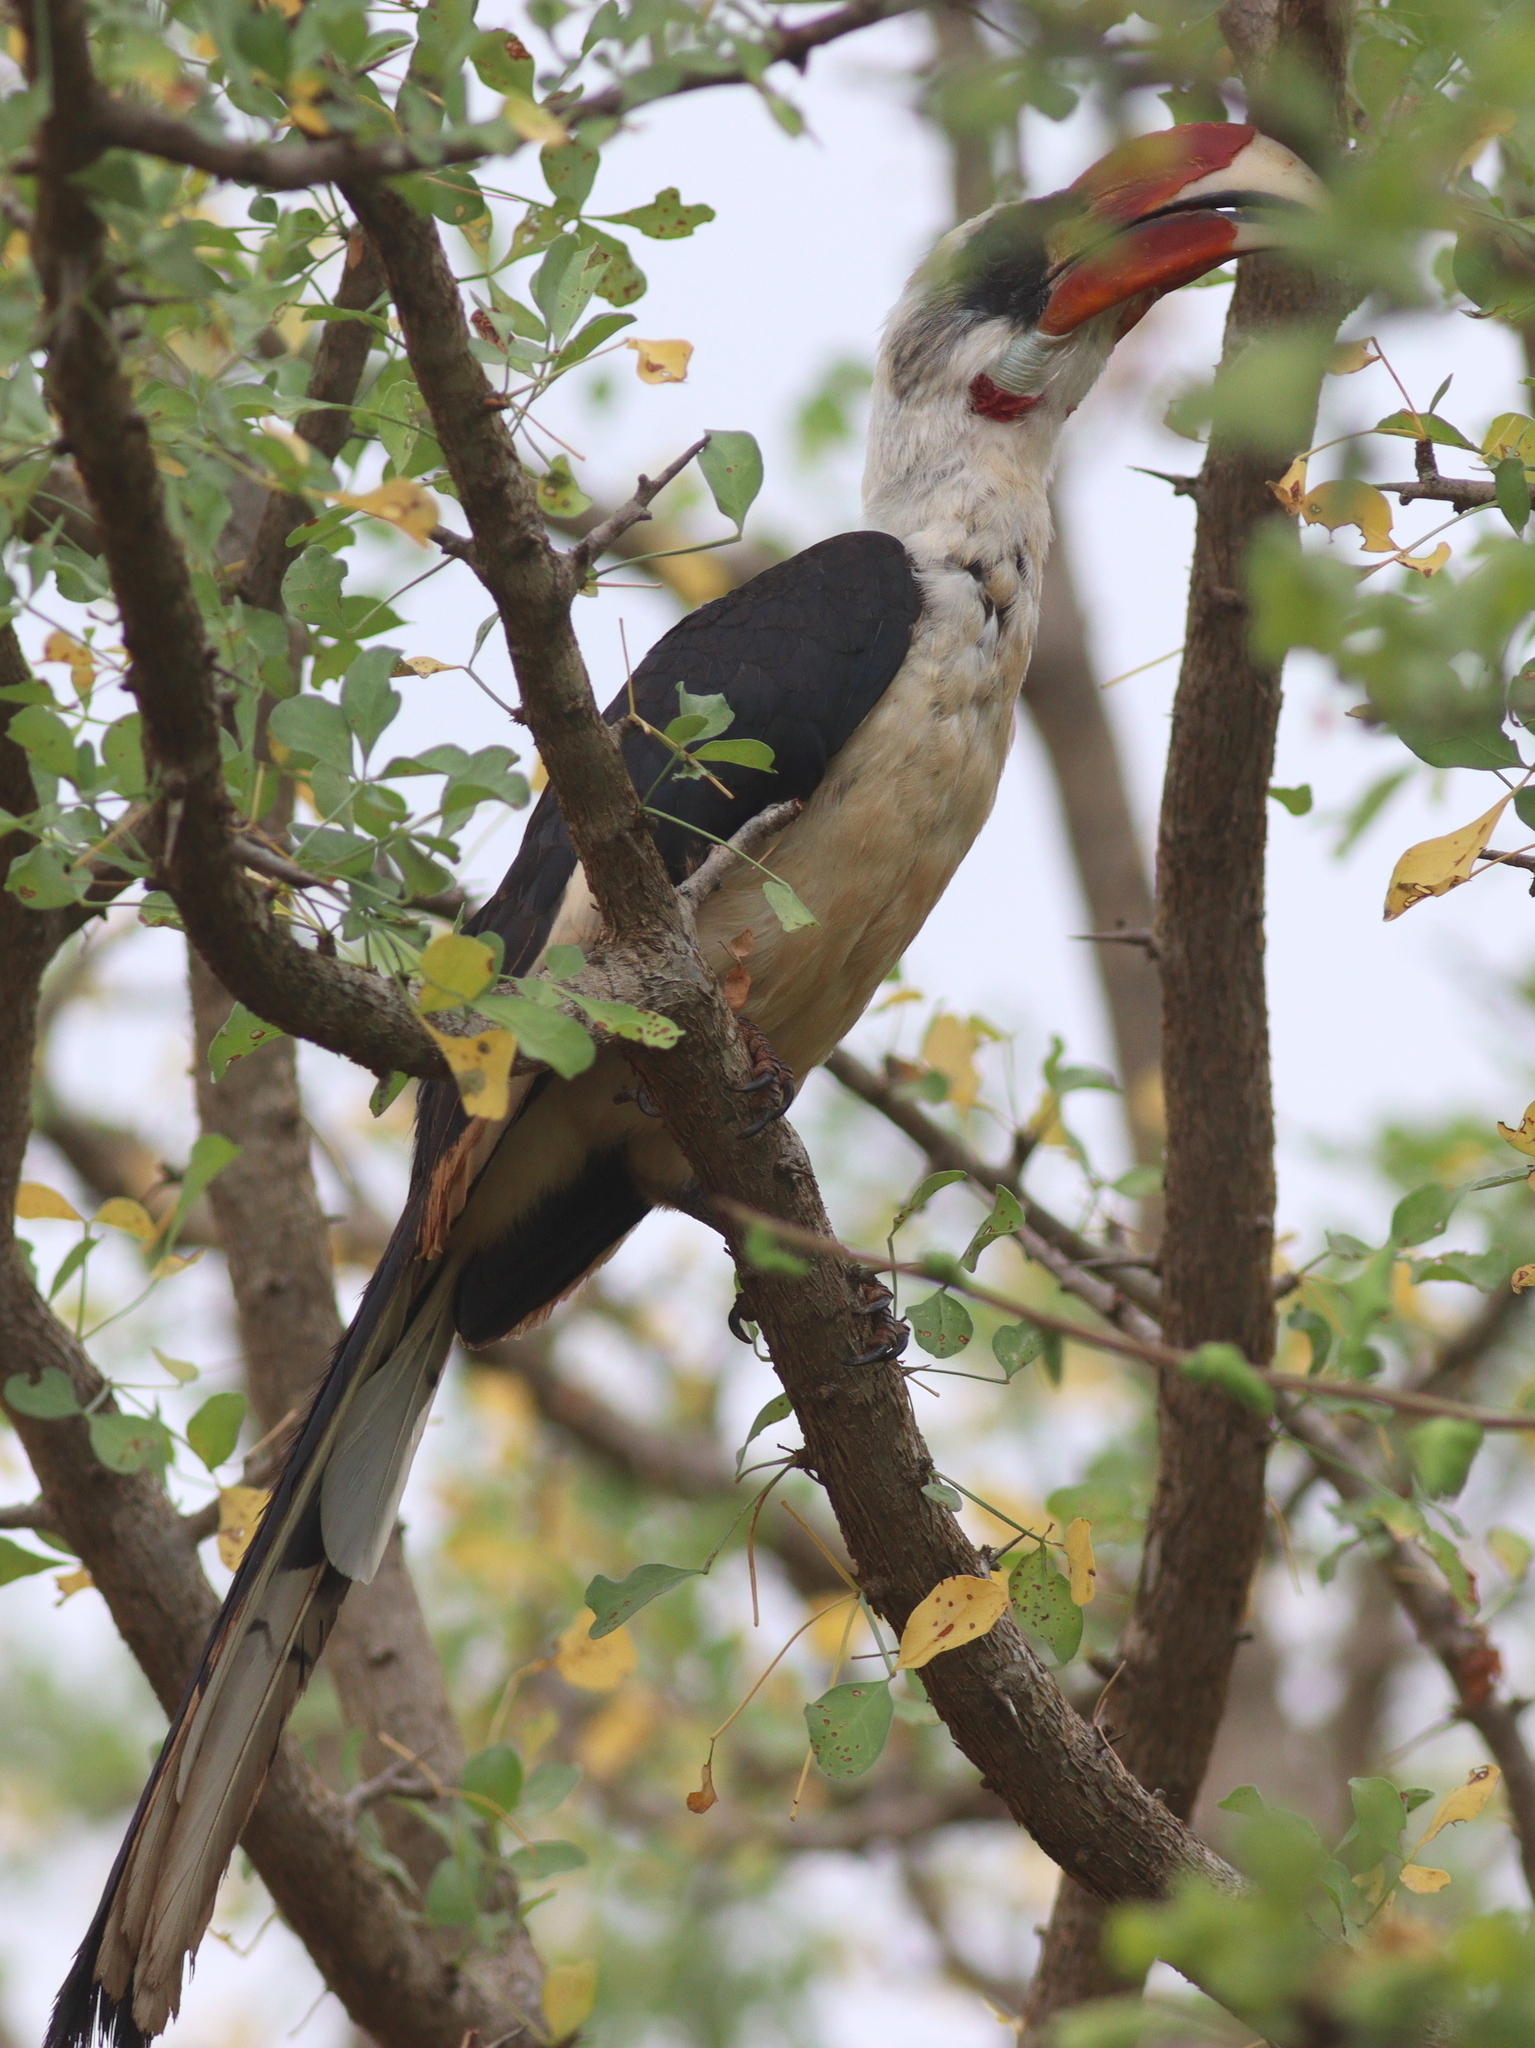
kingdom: Animalia
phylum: Chordata
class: Aves
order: Bucerotiformes
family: Bucerotidae
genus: Tockus
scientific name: Tockus deckeni
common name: Von der decken's hornbill
